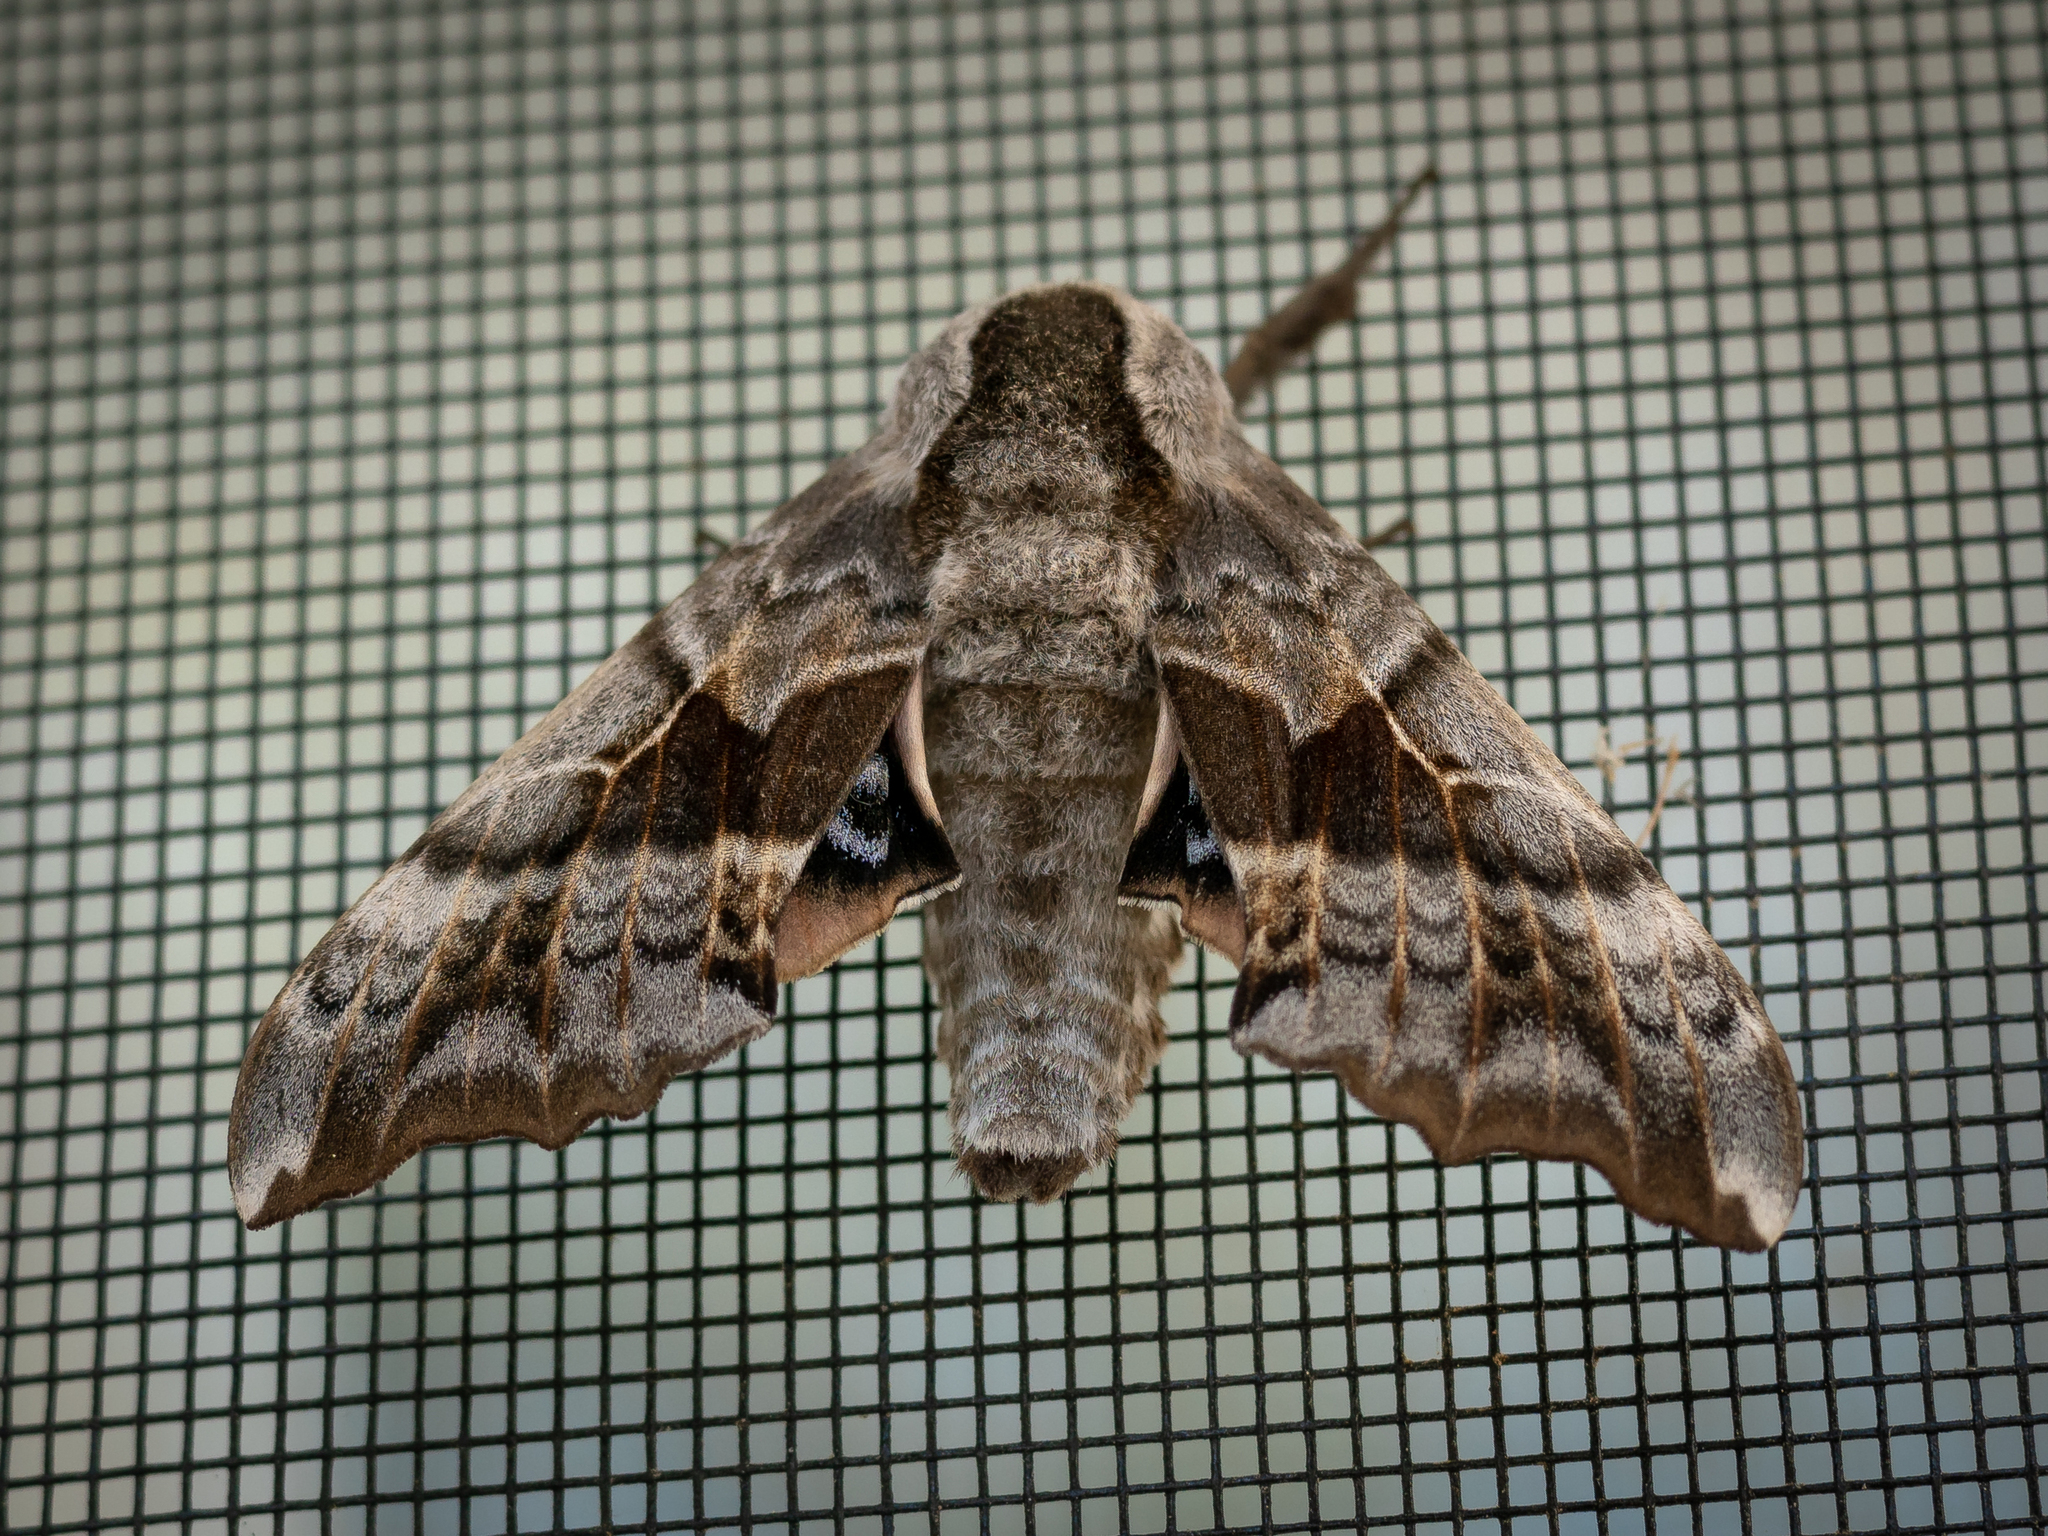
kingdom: Animalia
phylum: Arthropoda
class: Insecta
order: Lepidoptera
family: Sphingidae
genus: Smerinthus
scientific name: Smerinthus cerisyi
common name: Cerisy's sphinx moth
